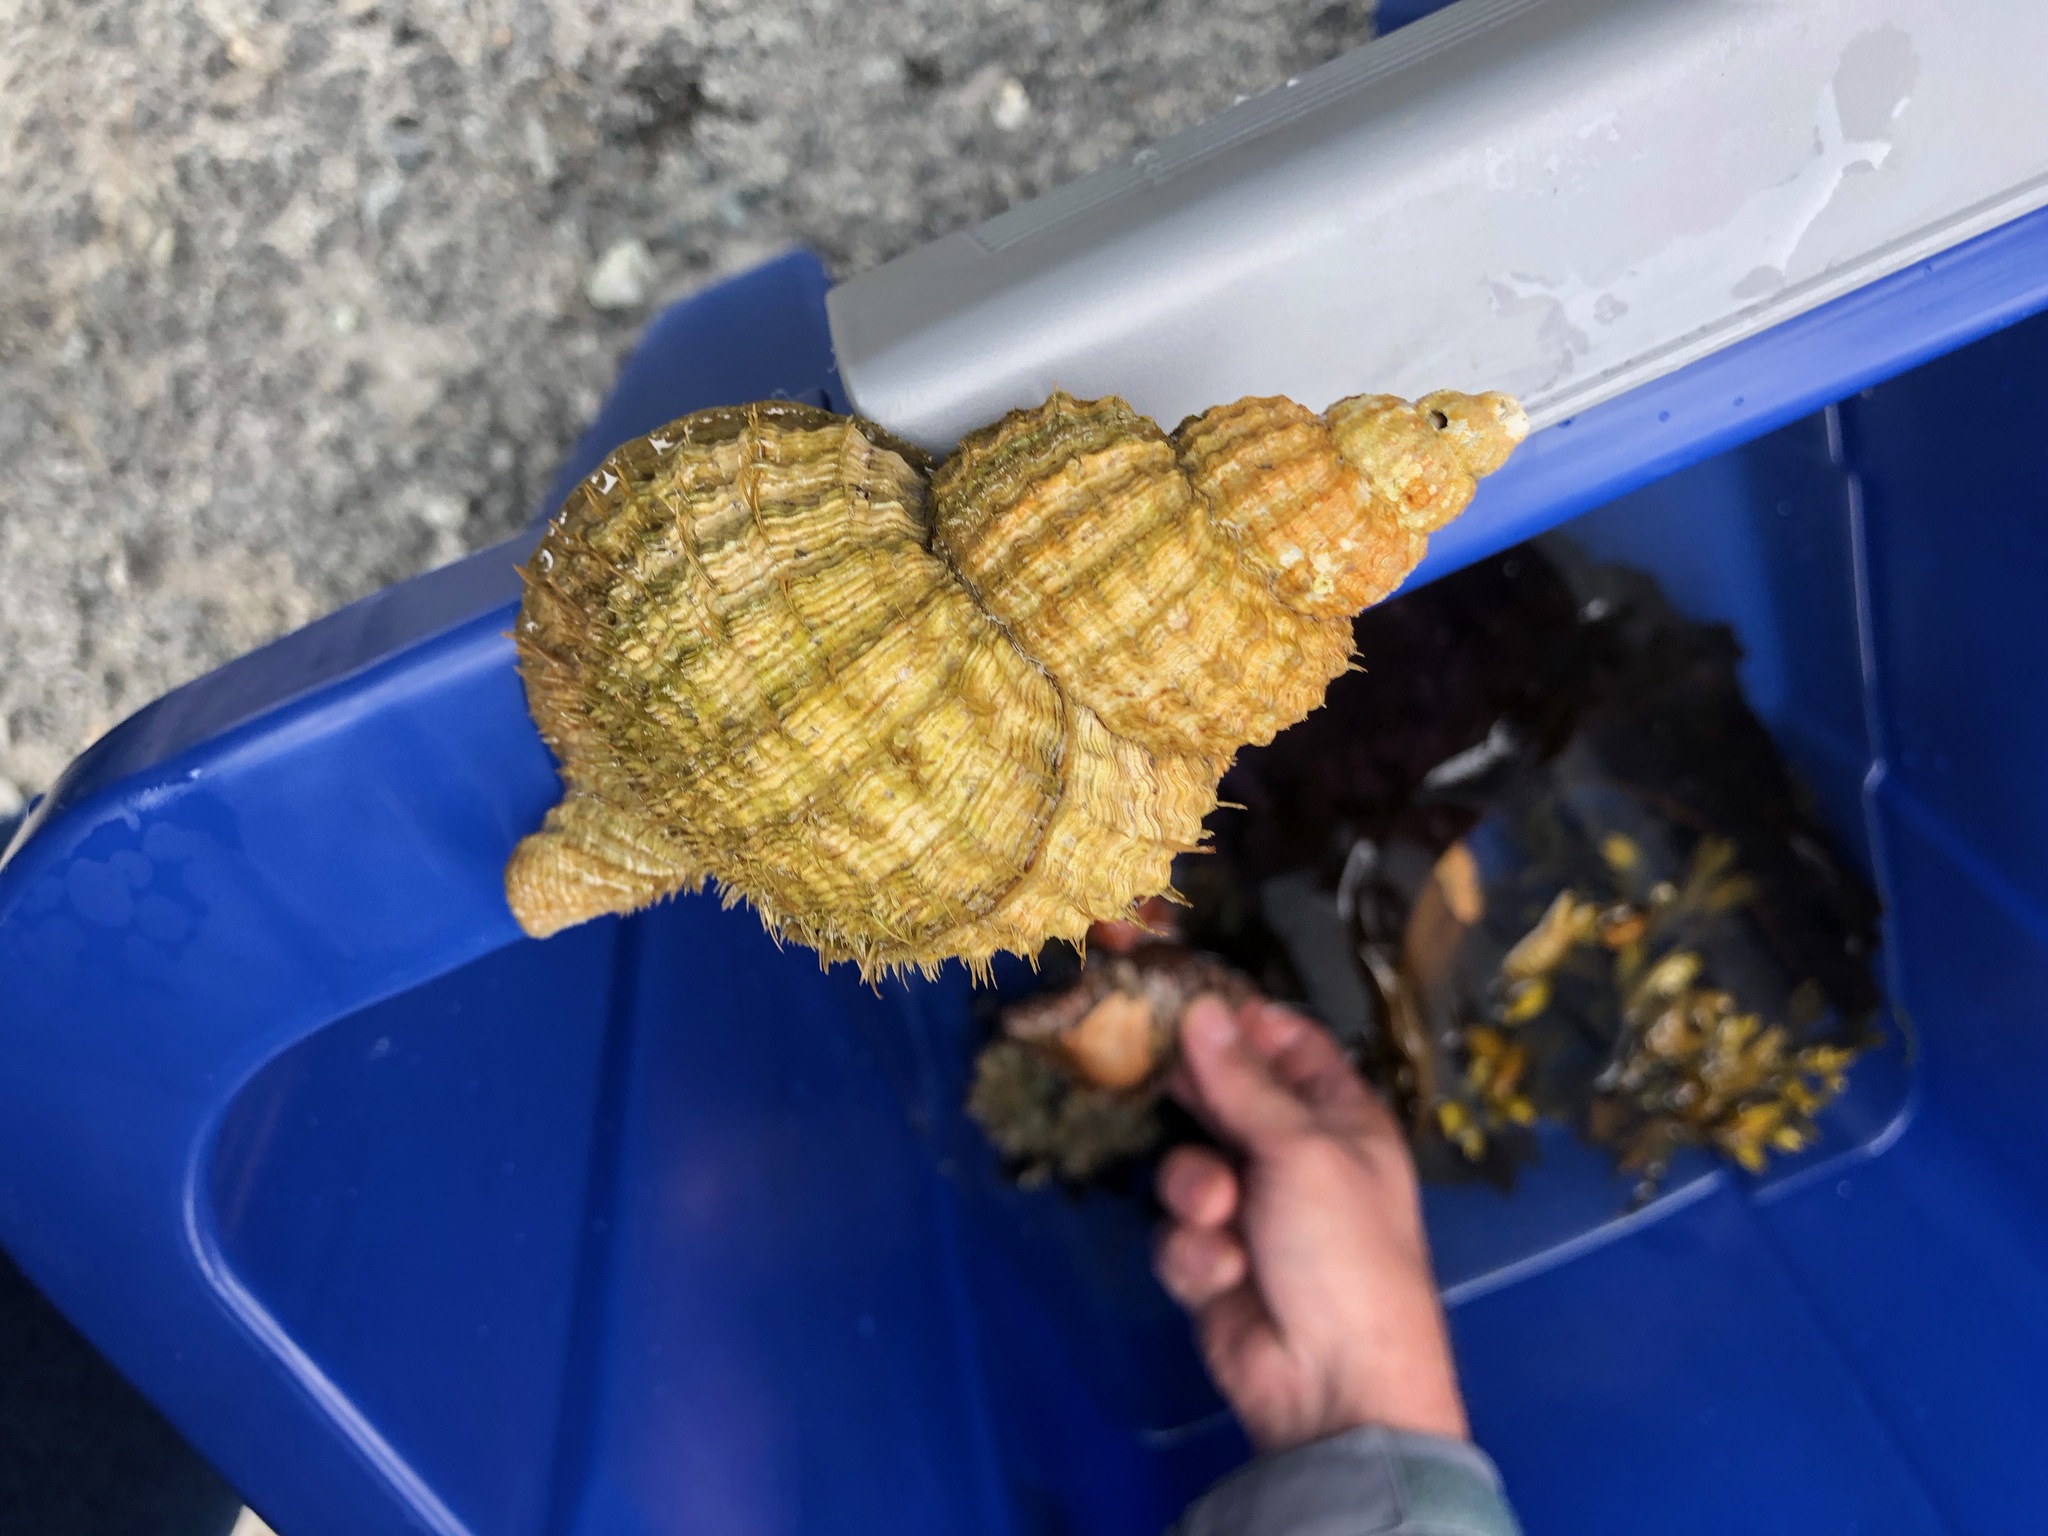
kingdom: Animalia
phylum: Mollusca
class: Gastropoda
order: Littorinimorpha
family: Cymatiidae
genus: Fusitriton
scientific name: Fusitriton oregonensis
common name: Oregon hairy triton
